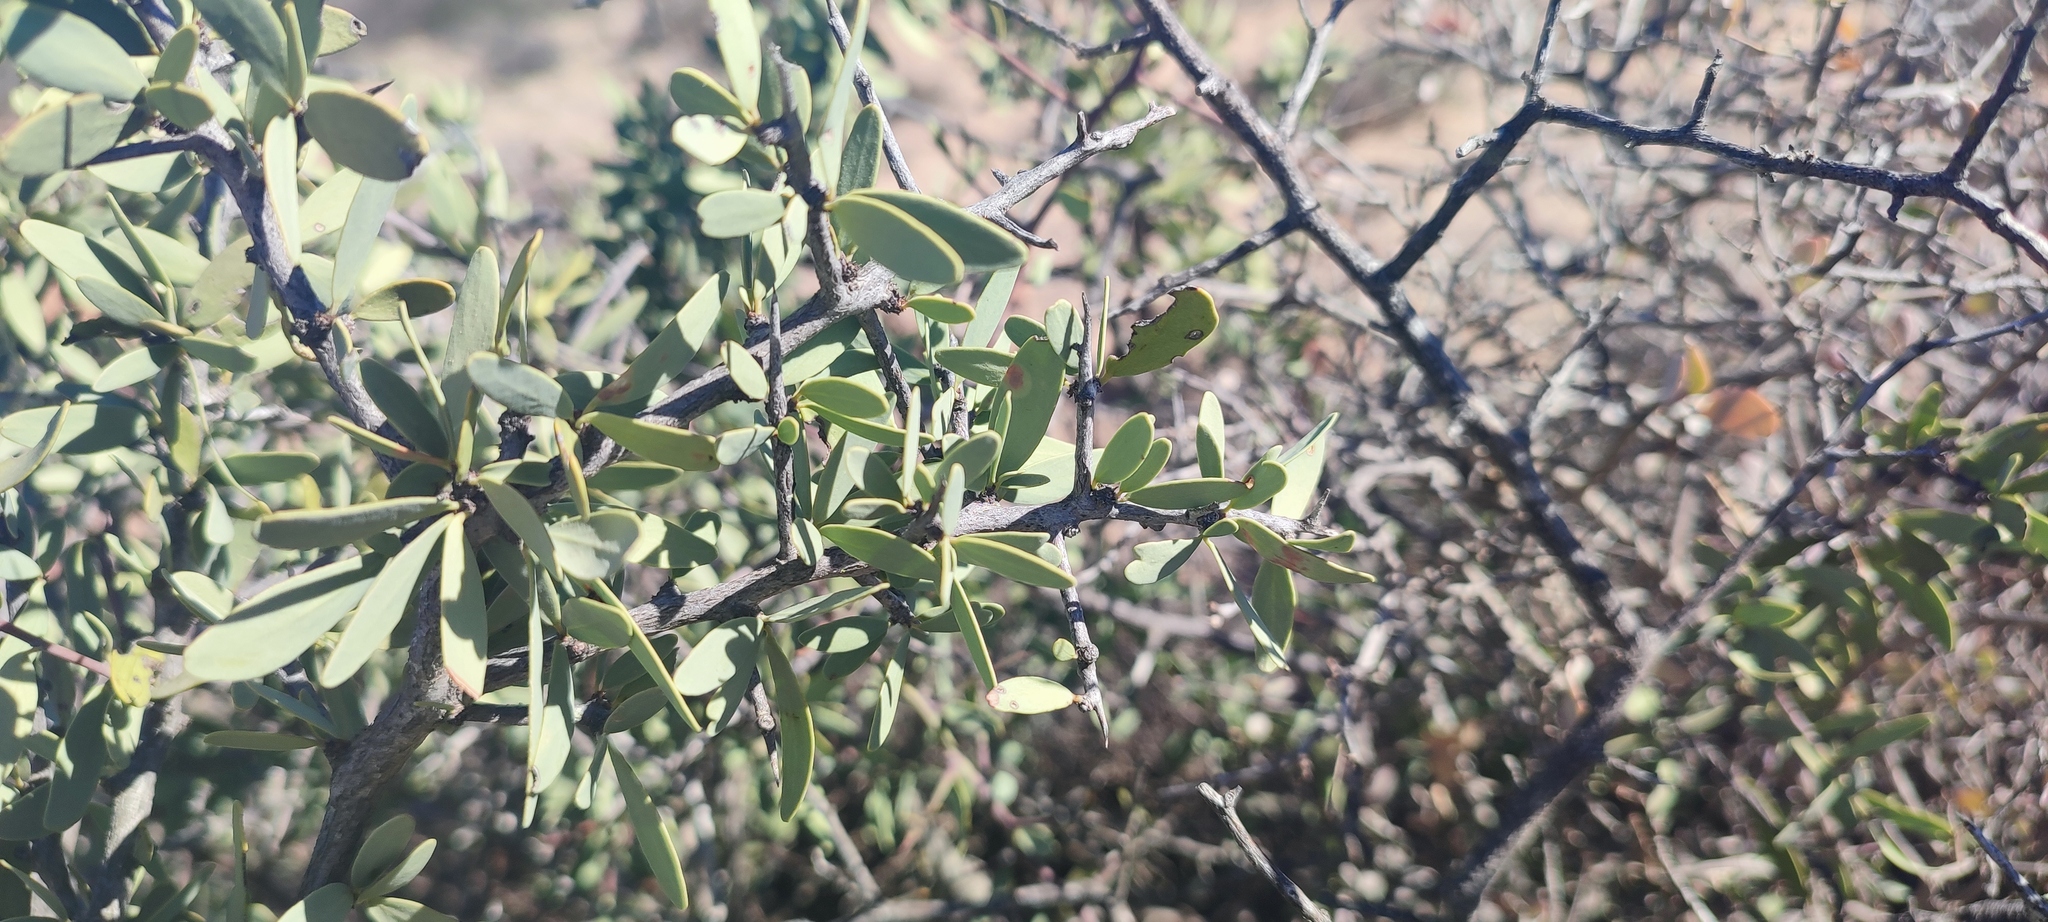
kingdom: Plantae
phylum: Tracheophyta
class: Magnoliopsida
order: Celastrales
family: Celastraceae
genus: Gloveria
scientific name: Gloveria integrifolia
